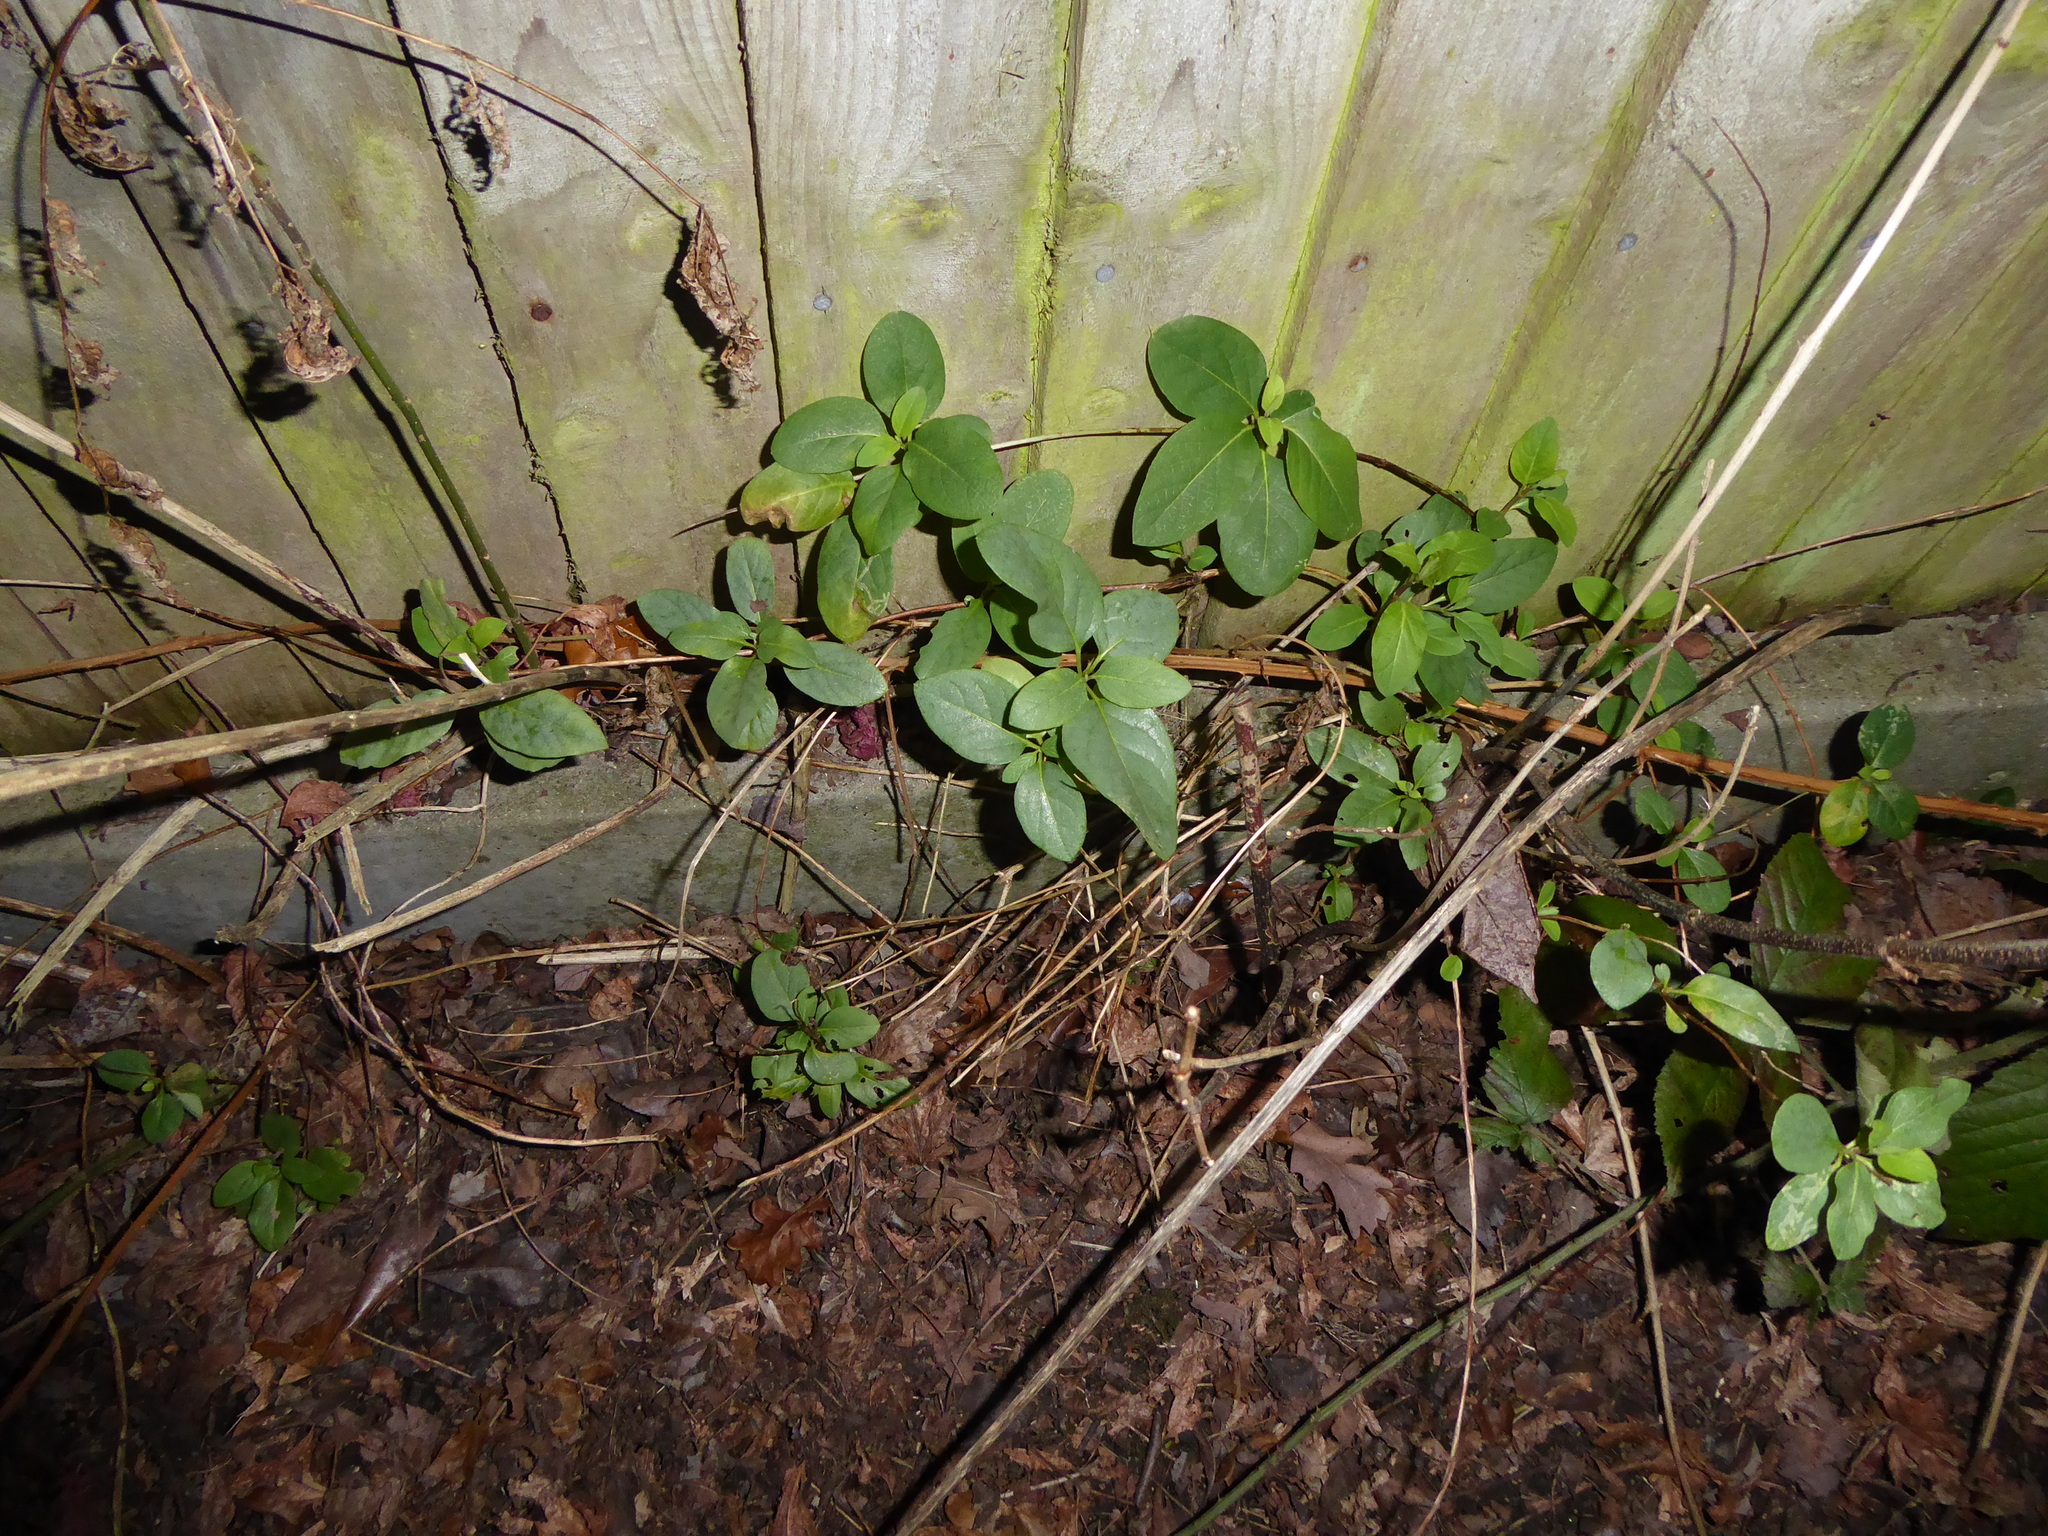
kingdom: Plantae
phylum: Tracheophyta
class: Magnoliopsida
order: Dipsacales
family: Caprifoliaceae
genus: Lonicera
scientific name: Lonicera japonica
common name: Japanese honeysuckle
